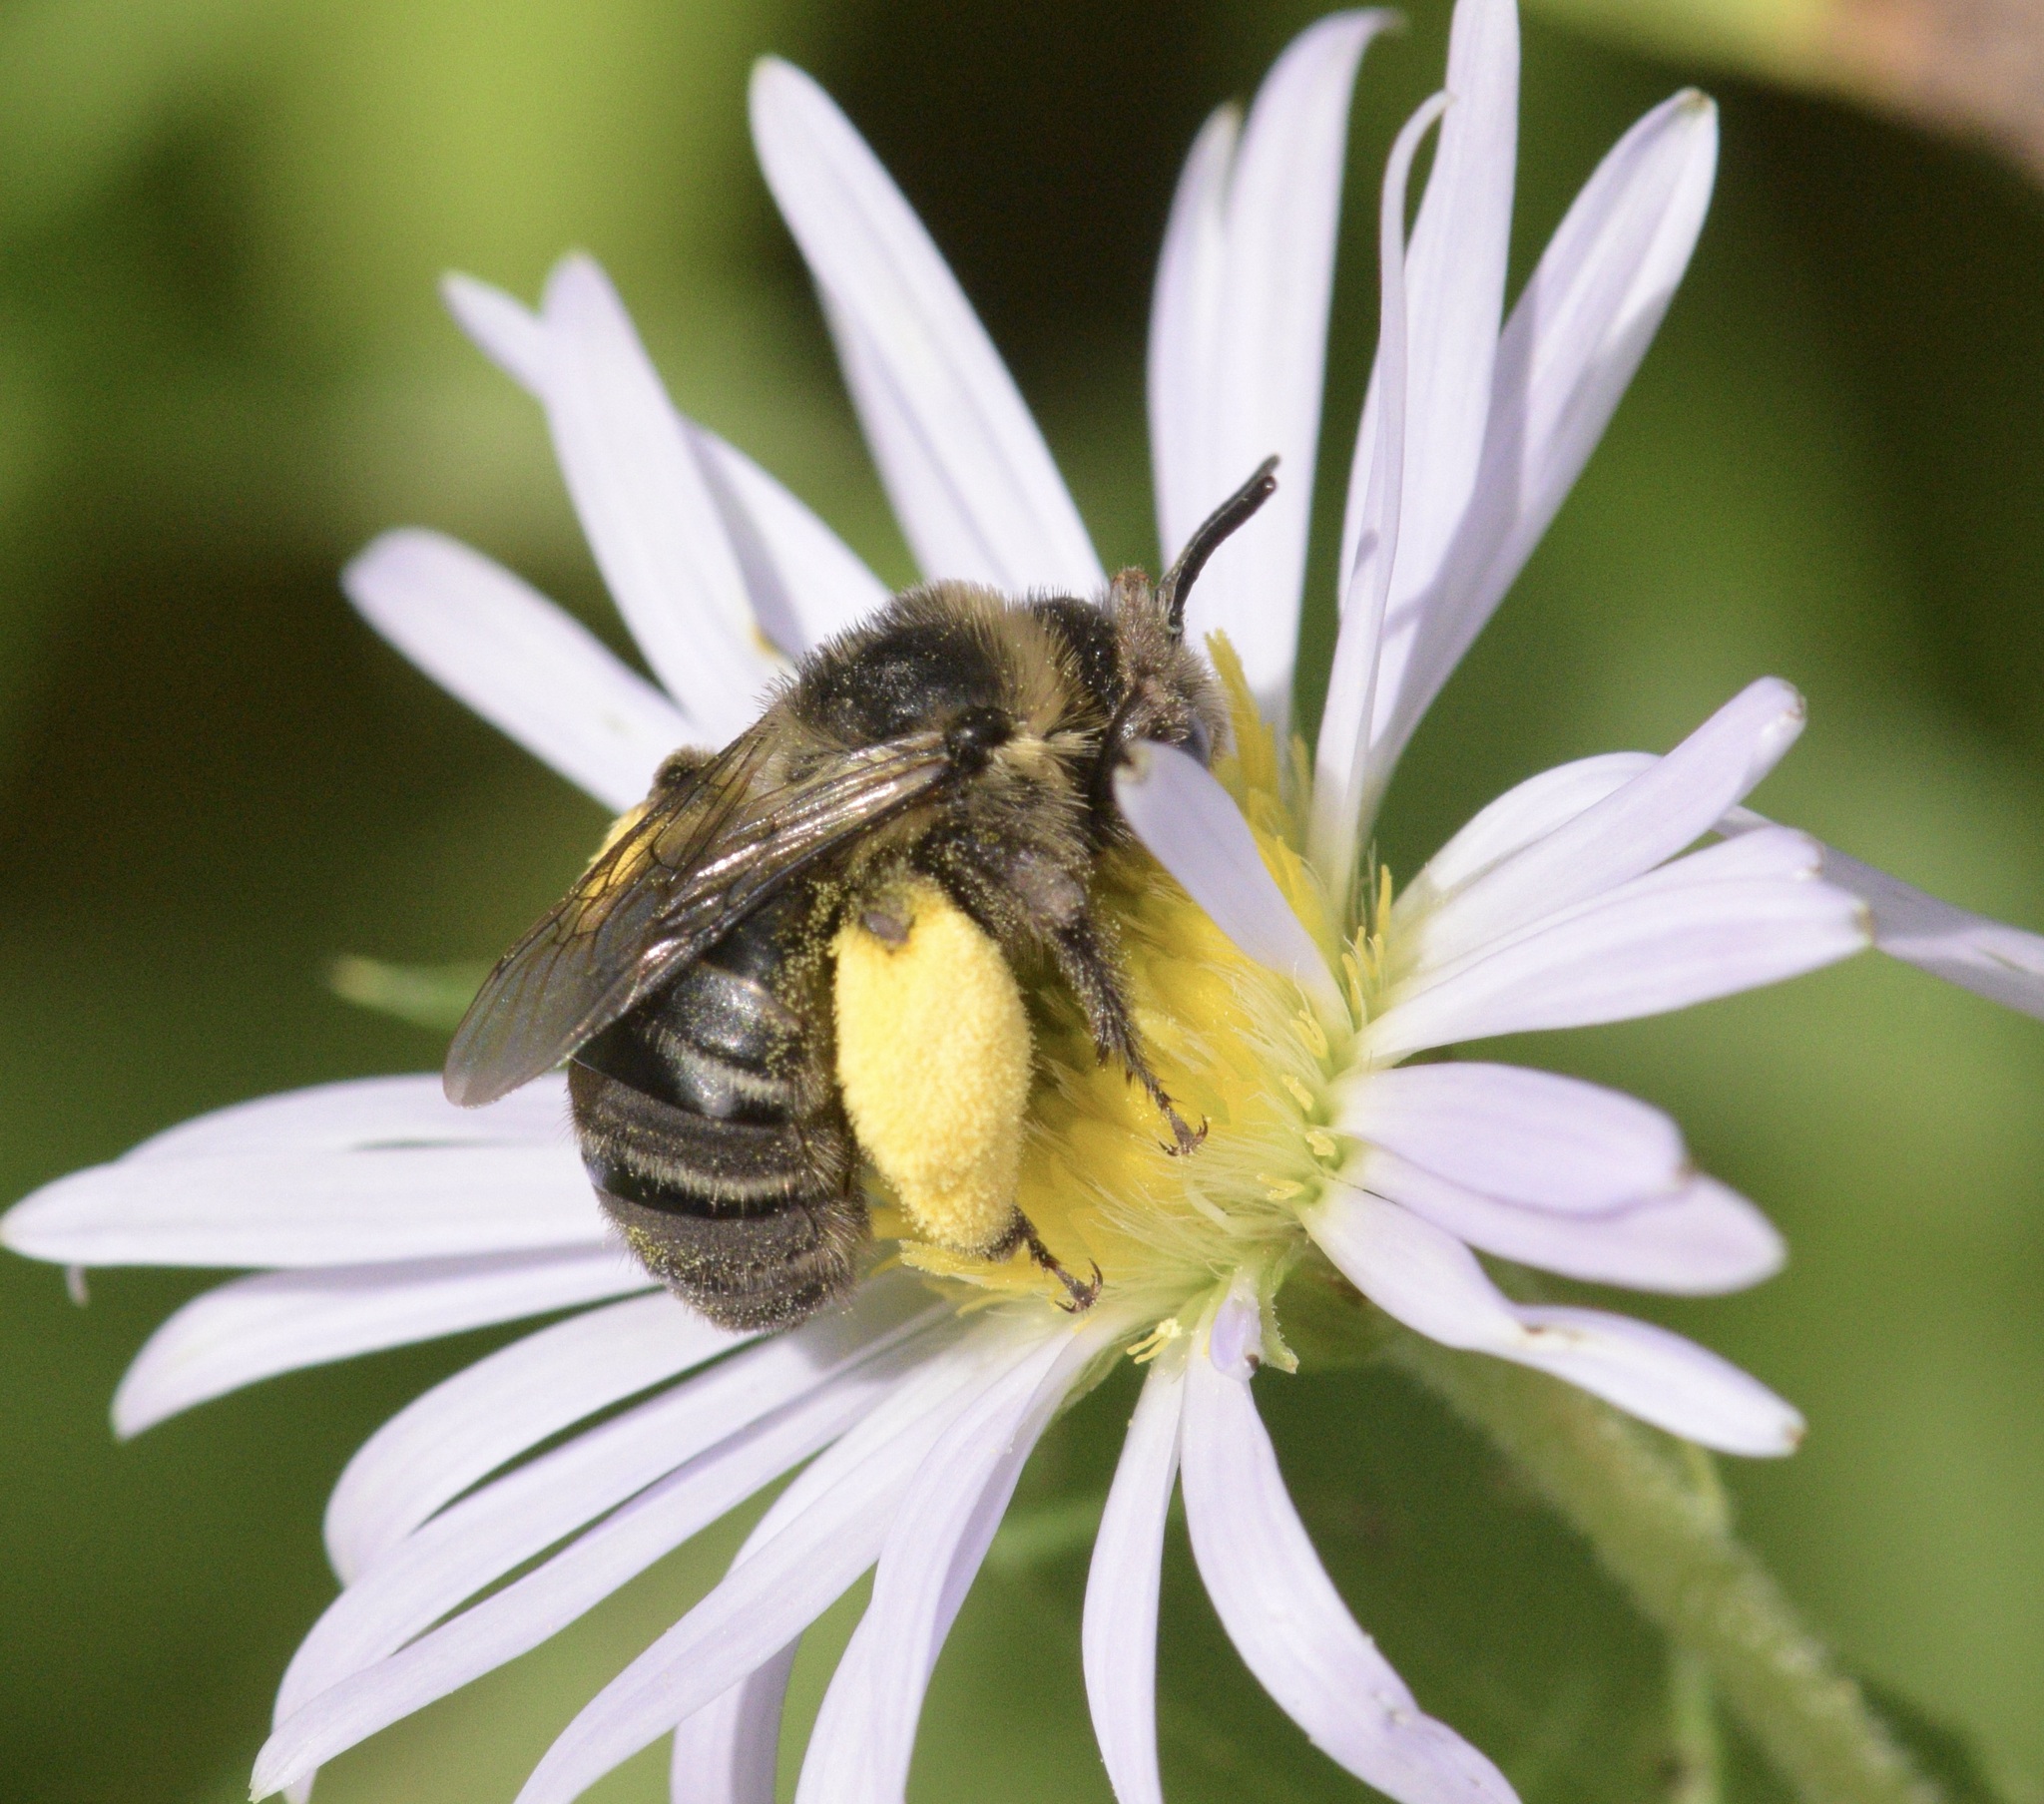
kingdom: Animalia
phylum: Arthropoda
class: Insecta
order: Hymenoptera
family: Apidae
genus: Melissodes
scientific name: Melissodes druriellus
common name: Drury's long-horned bee
